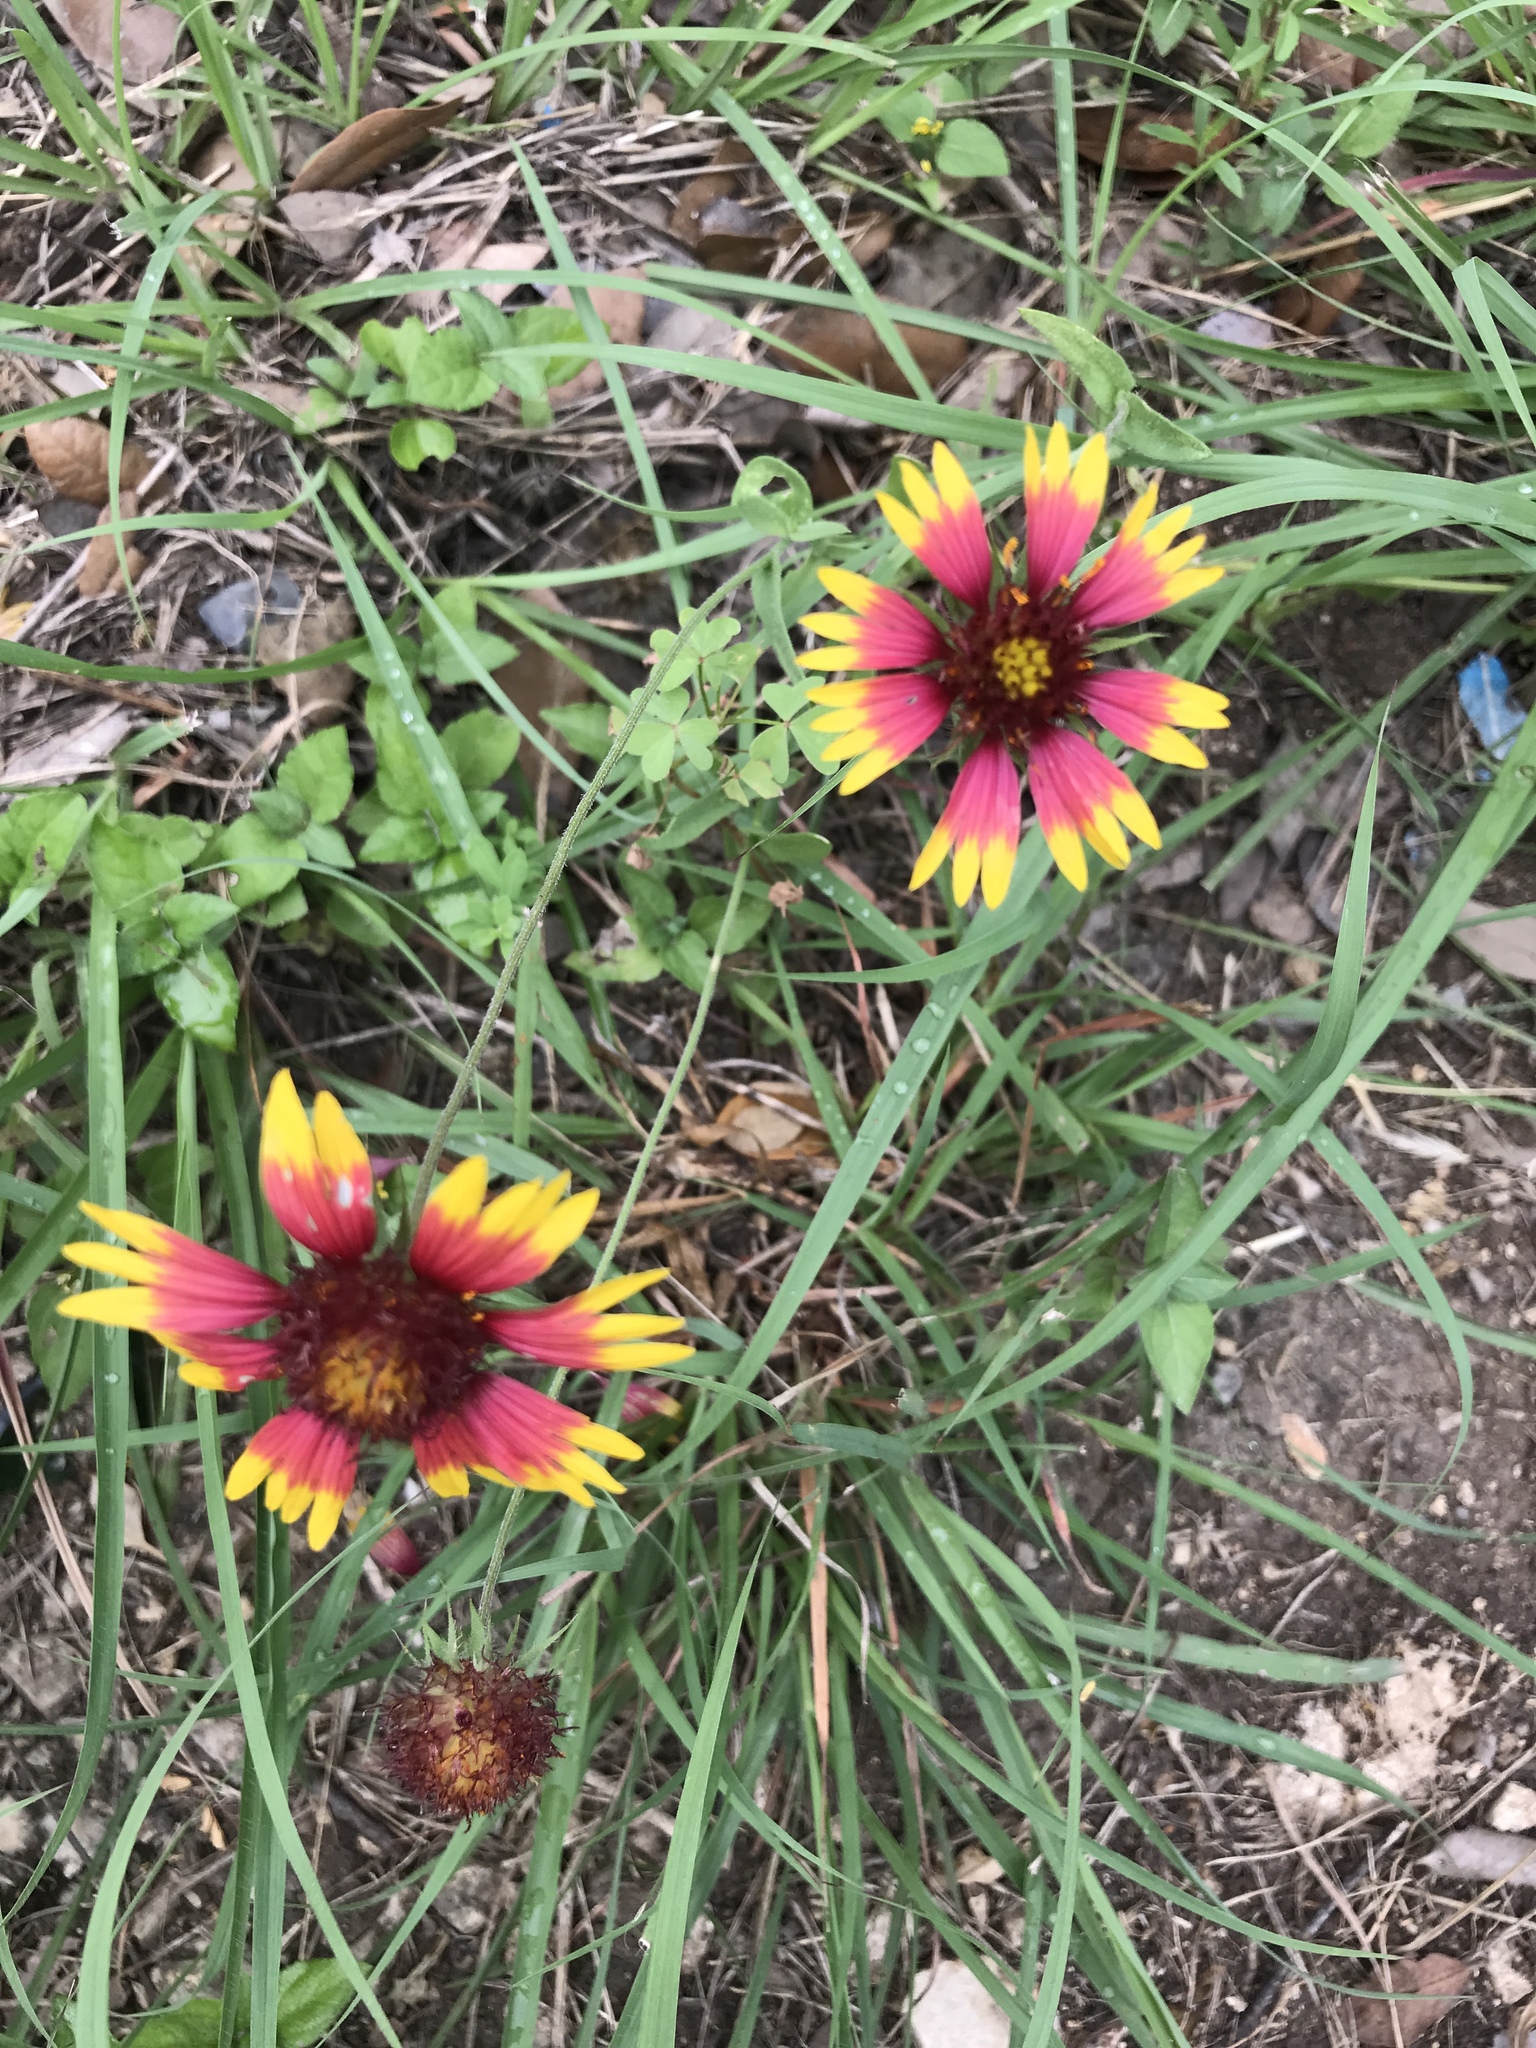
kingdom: Plantae
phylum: Tracheophyta
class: Magnoliopsida
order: Asterales
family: Asteraceae
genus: Gaillardia
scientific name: Gaillardia pulchella
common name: Firewheel
